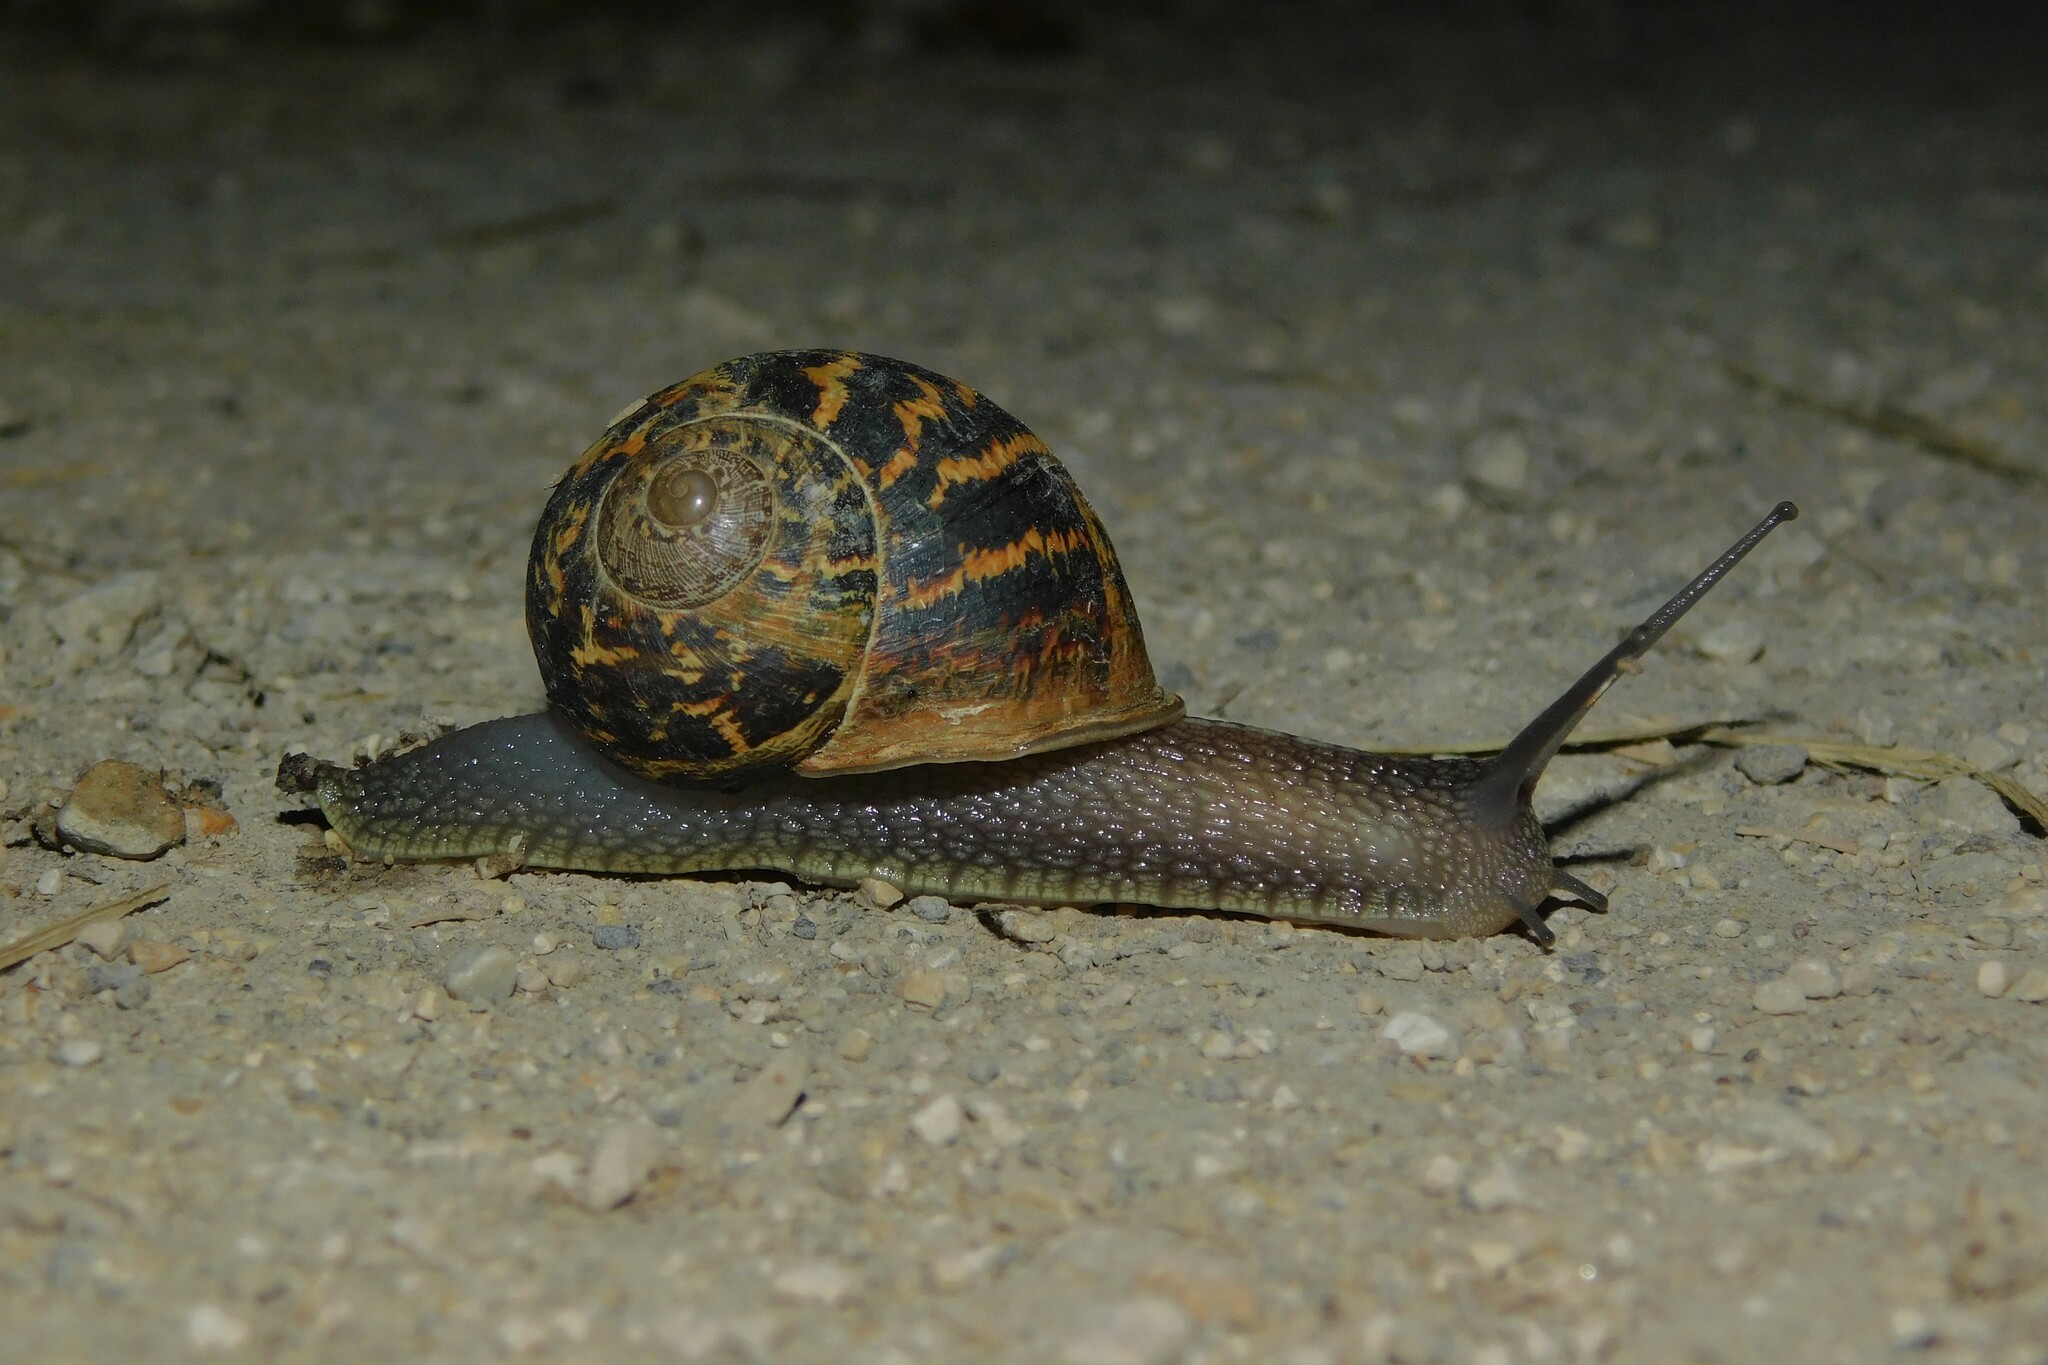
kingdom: Animalia
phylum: Mollusca
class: Gastropoda
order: Stylommatophora
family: Helicidae
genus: Cornu
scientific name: Cornu aspersum
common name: Brown garden snail
